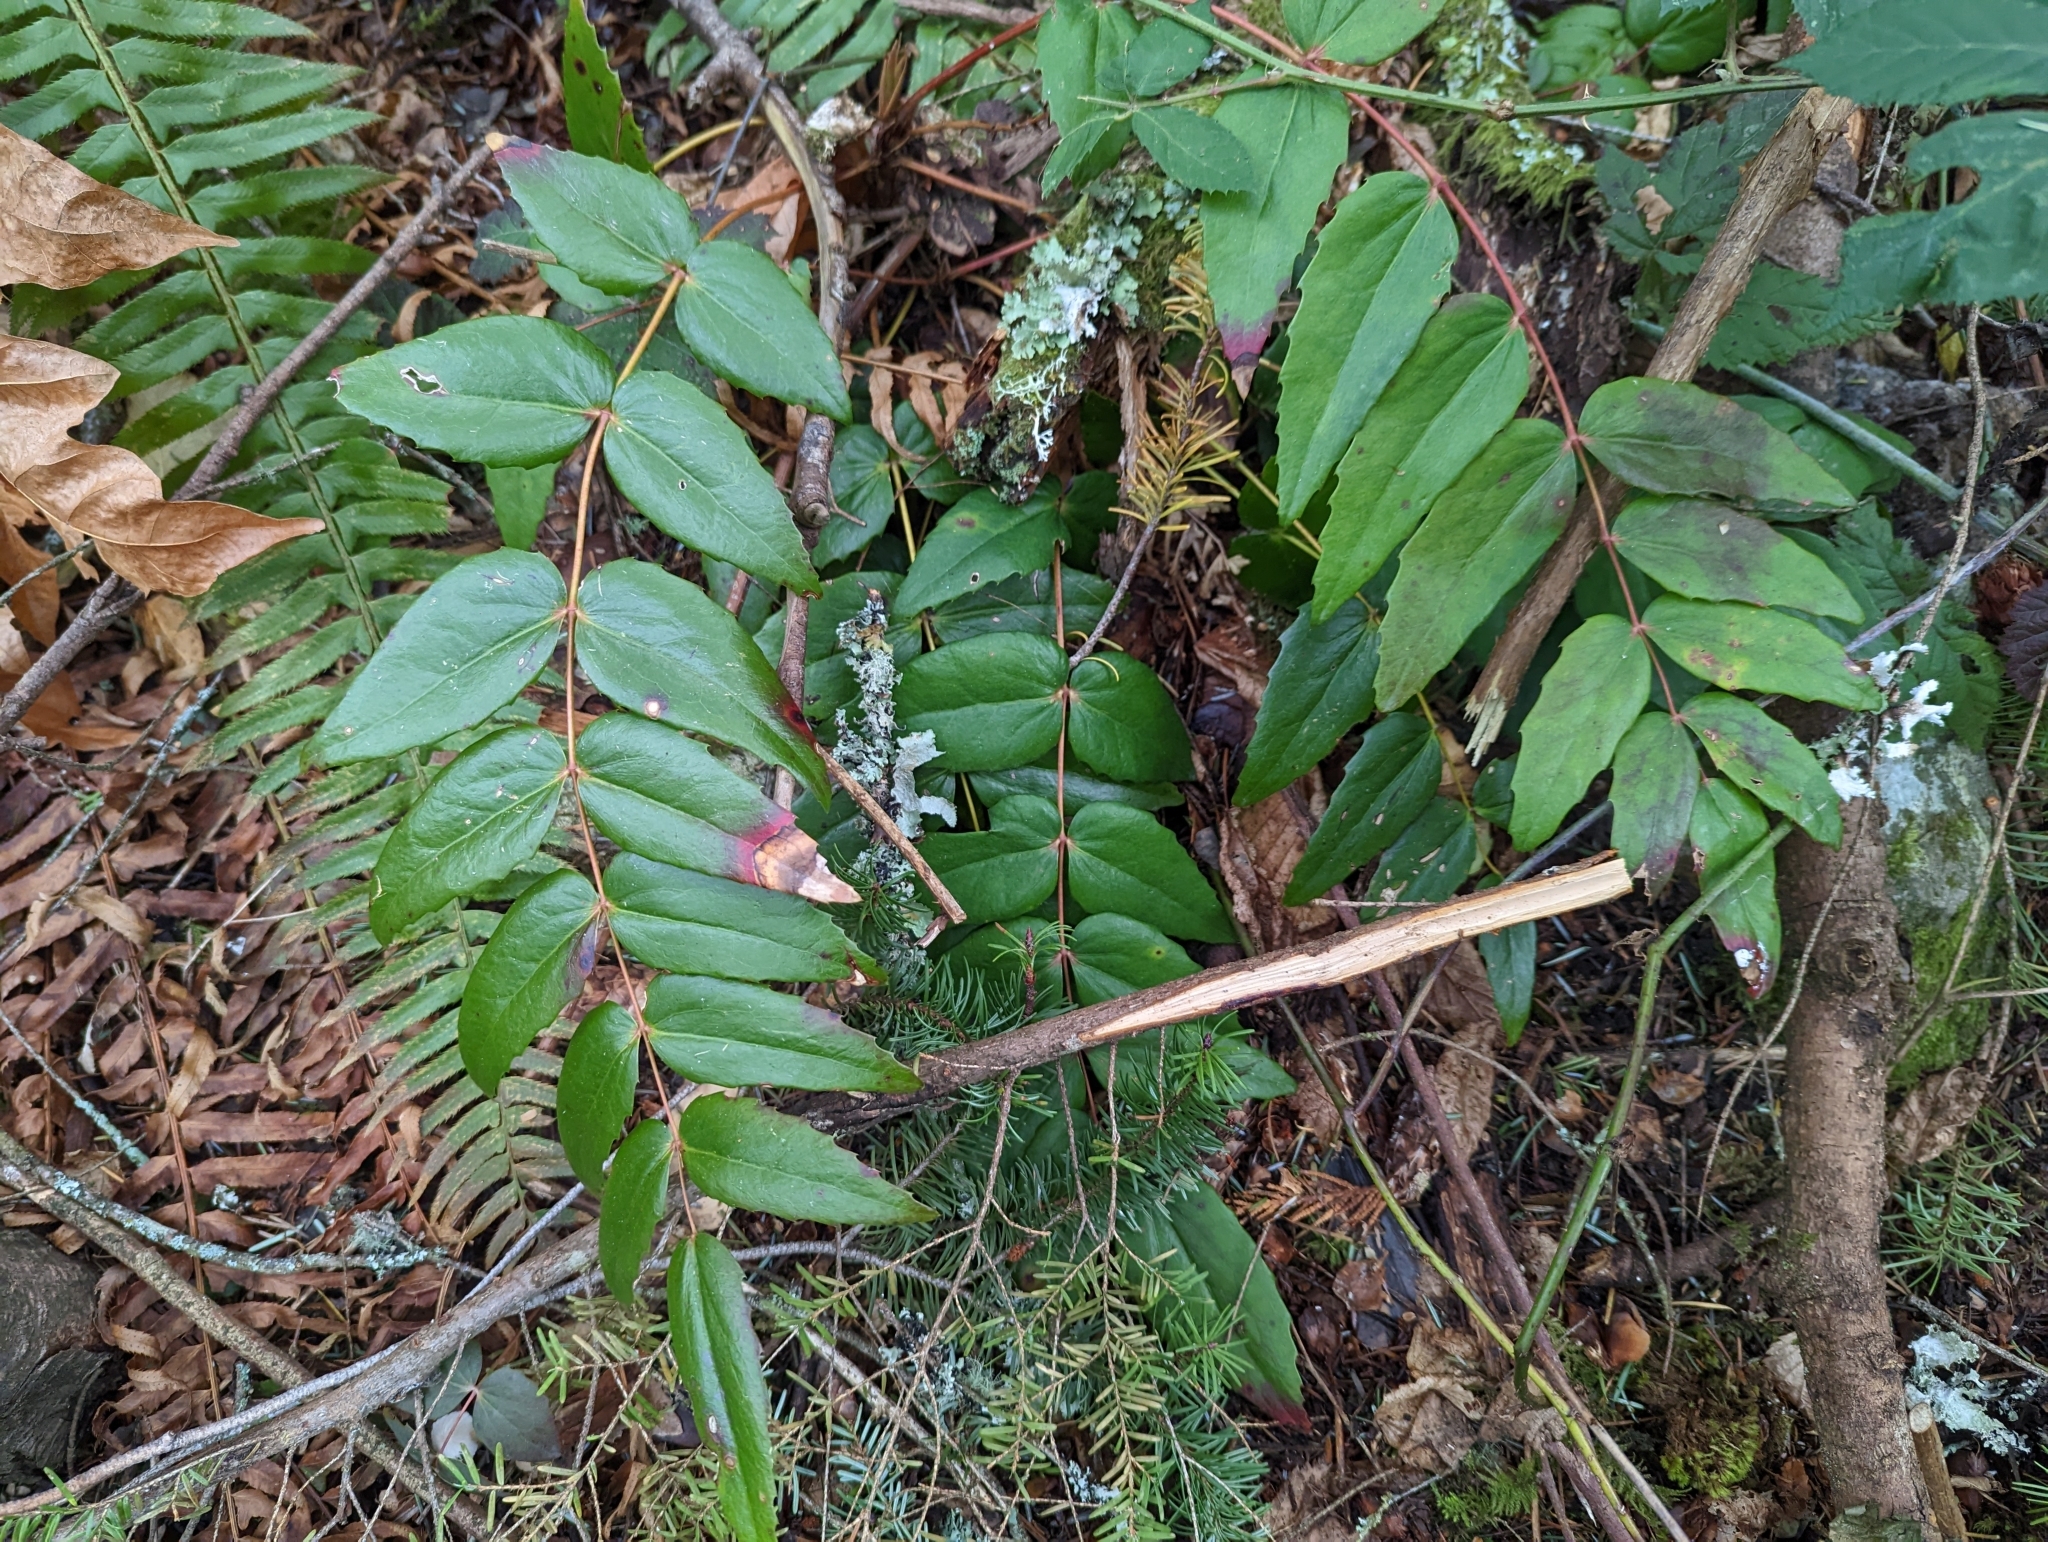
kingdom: Plantae
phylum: Tracheophyta
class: Magnoliopsida
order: Ranunculales
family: Berberidaceae
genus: Mahonia
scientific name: Mahonia nervosa
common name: Cascade oregon-grape
